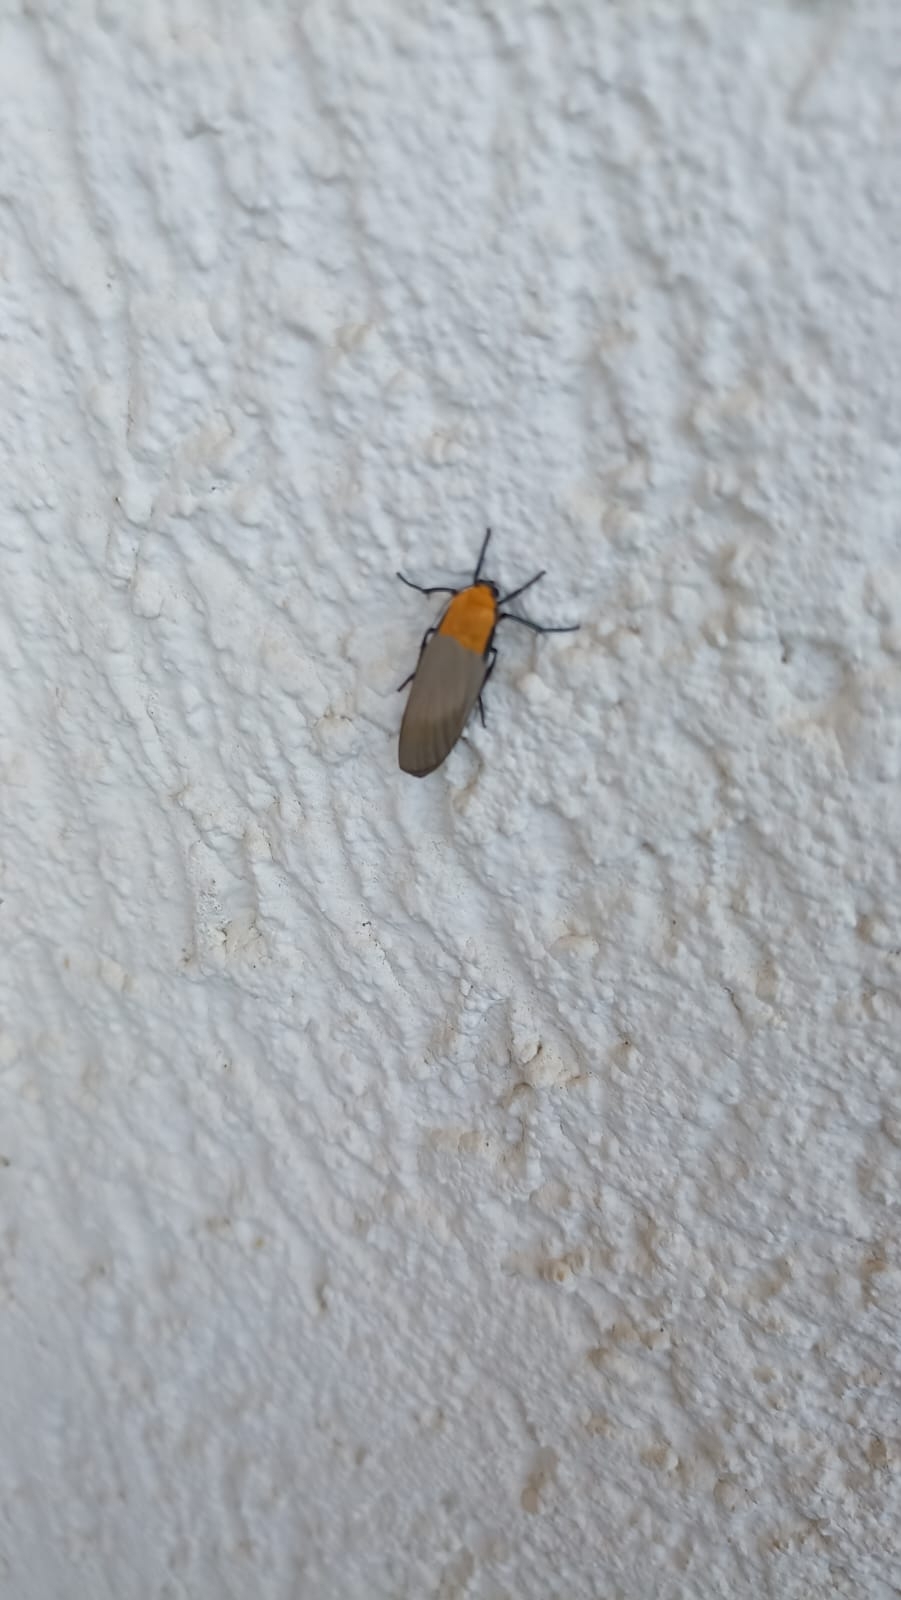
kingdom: Animalia
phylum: Arthropoda
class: Insecta
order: Lepidoptera
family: Erebidae
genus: Lithosia
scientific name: Lithosia quadra
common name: Four-spotted footman
